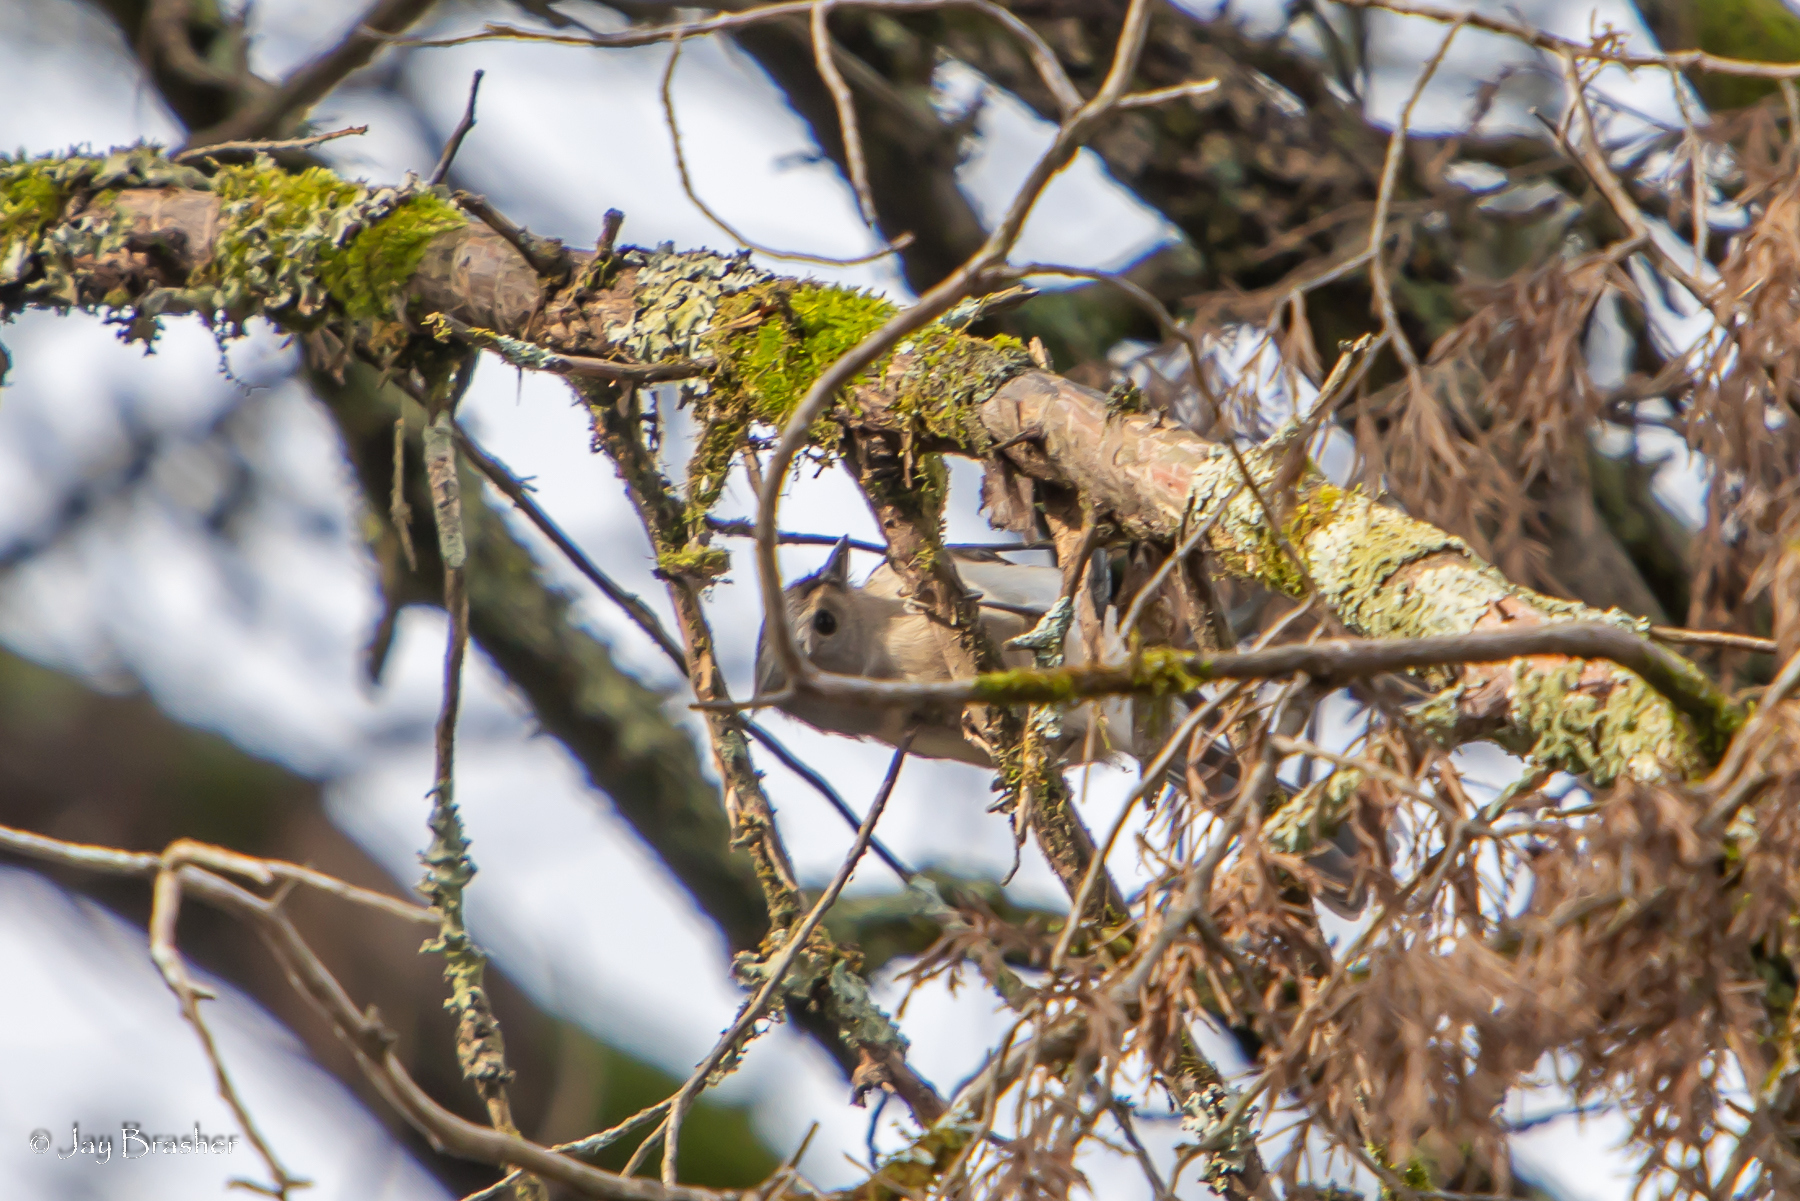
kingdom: Animalia
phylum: Chordata
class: Aves
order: Passeriformes
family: Paridae
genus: Baeolophus
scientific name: Baeolophus bicolor
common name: Tufted titmouse
